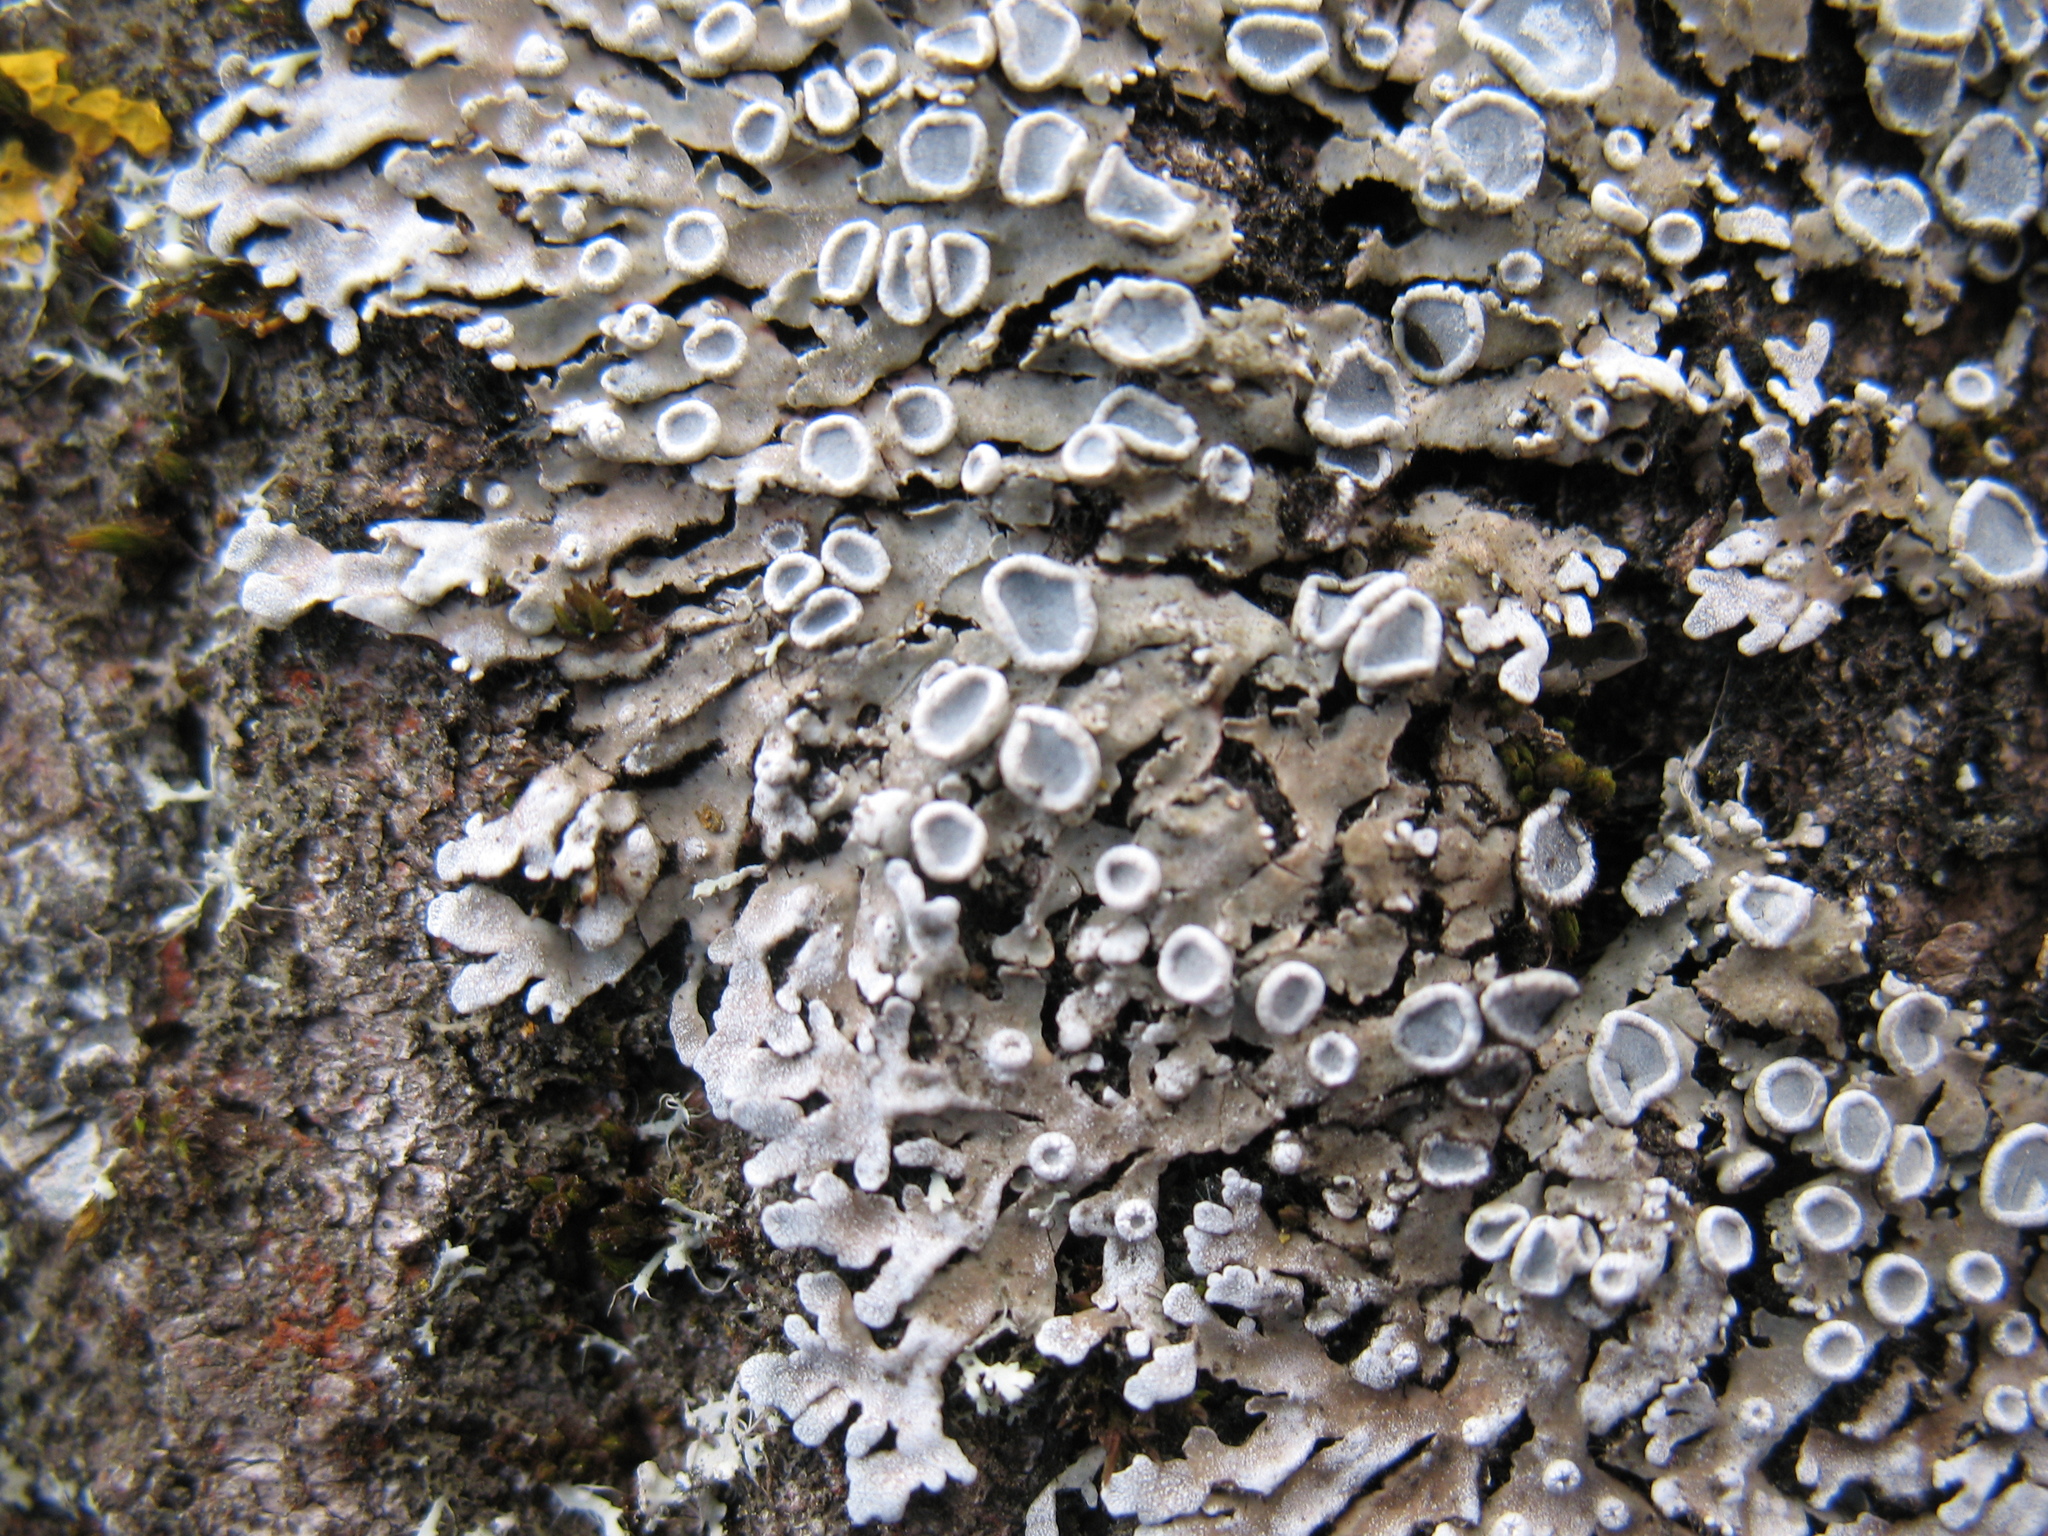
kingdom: Fungi
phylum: Ascomycota
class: Lecanoromycetes
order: Caliciales
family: Physciaceae
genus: Physconia
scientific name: Physconia distorta
